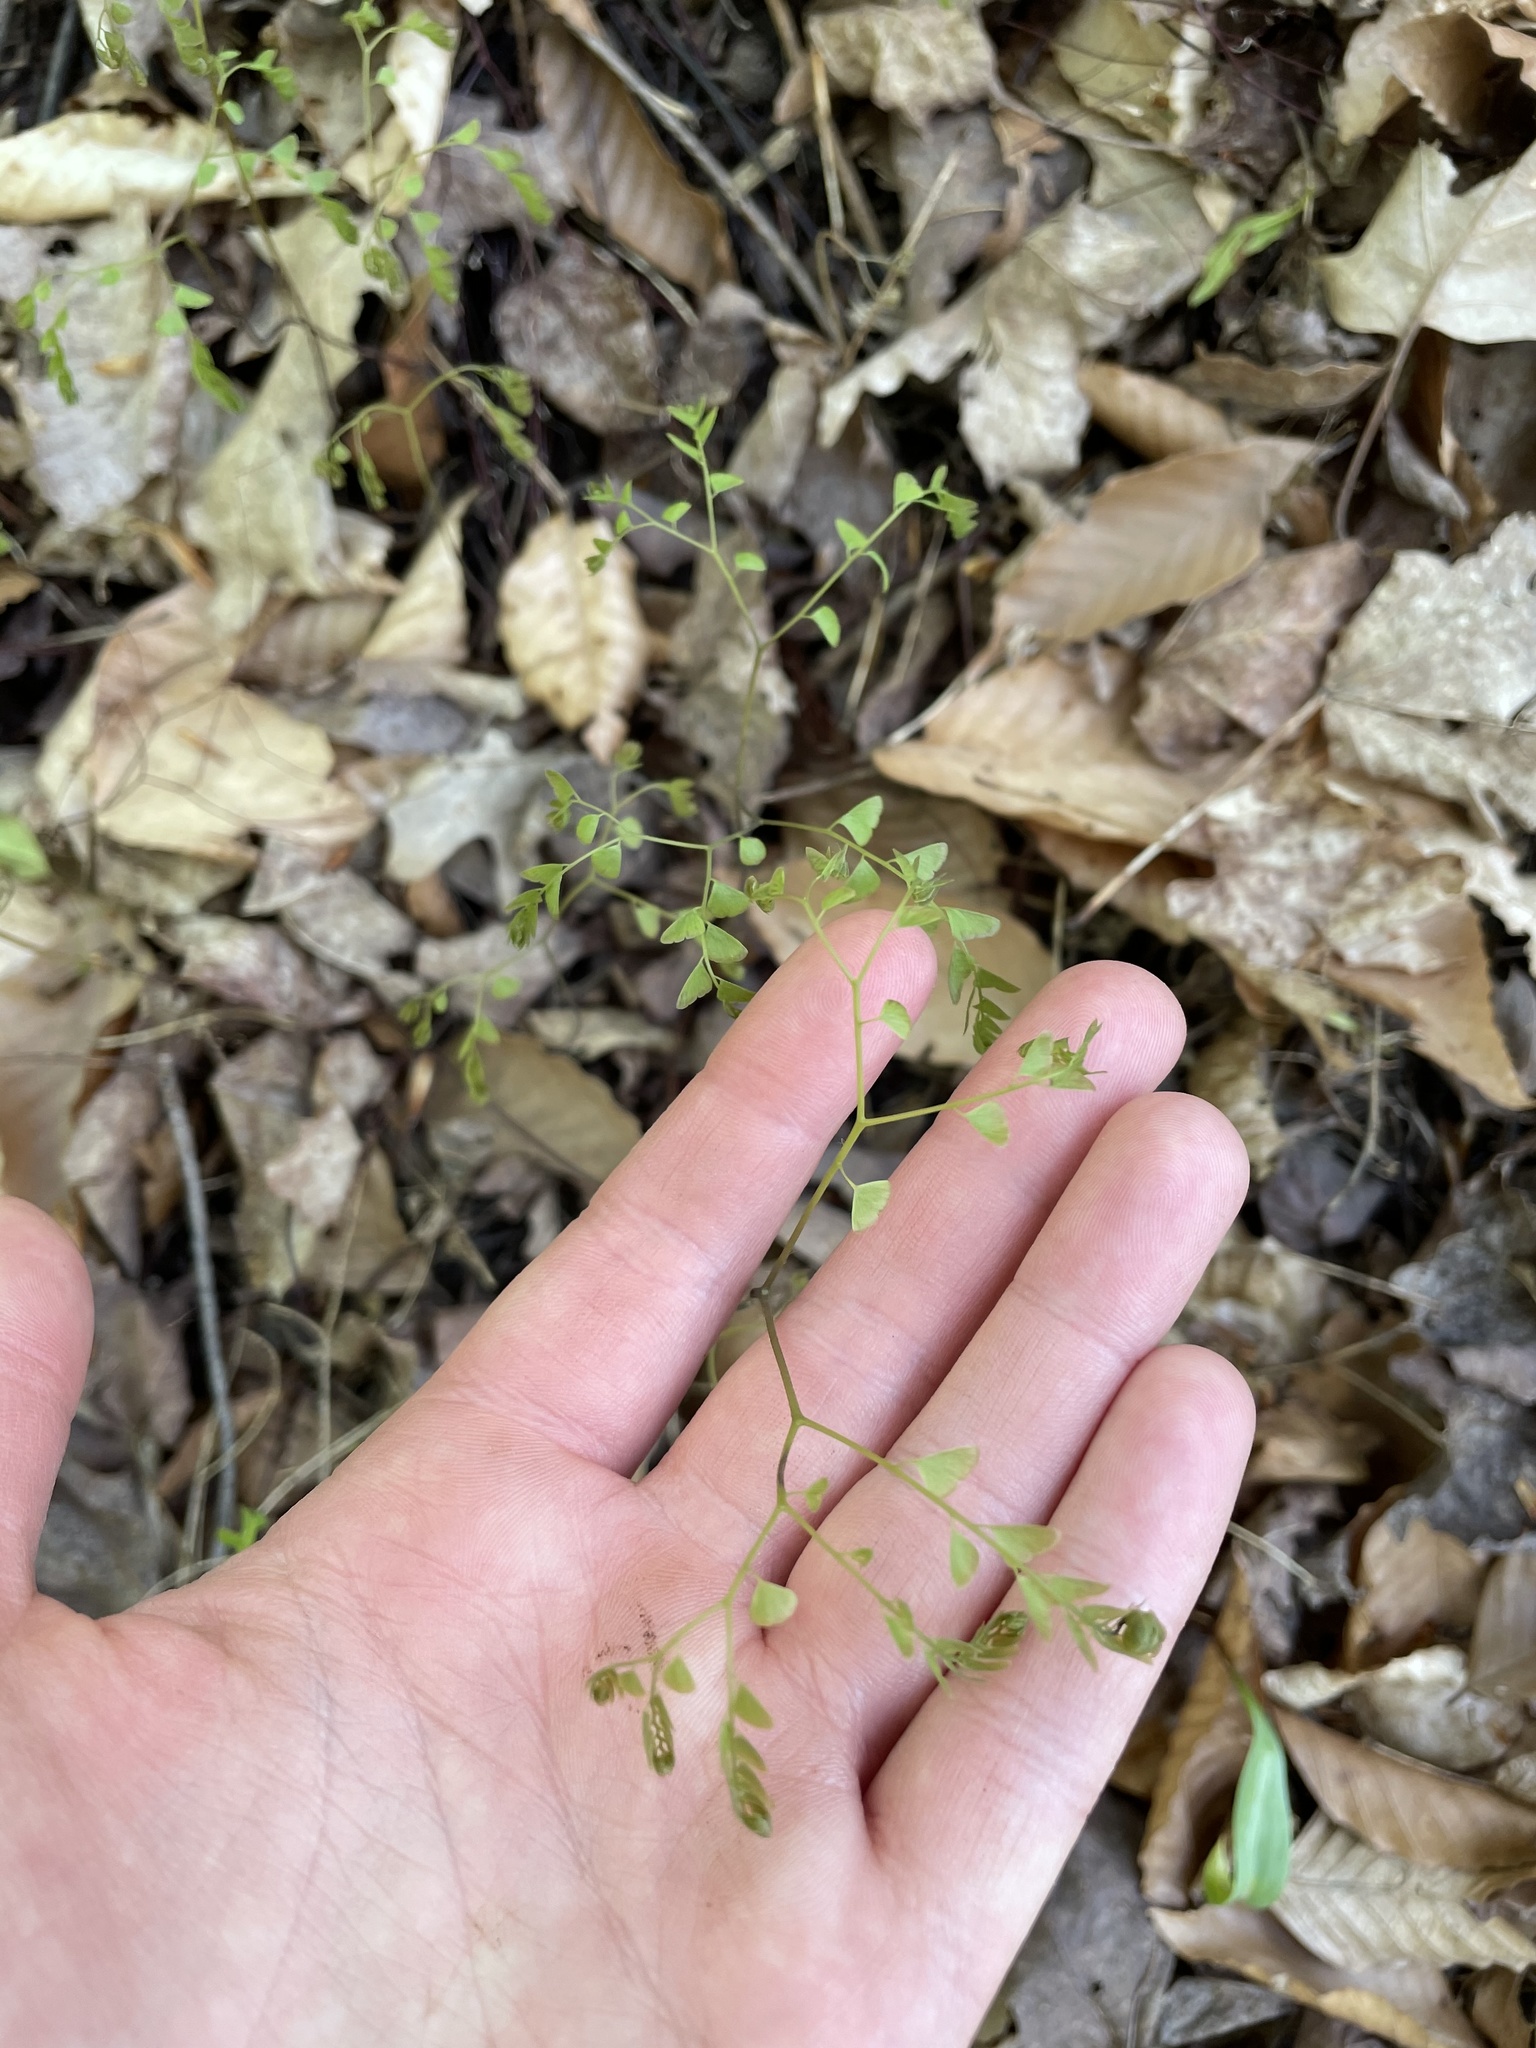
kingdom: Plantae
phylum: Tracheophyta
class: Polypodiopsida
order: Polypodiales
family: Pteridaceae
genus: Adiantum
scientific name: Adiantum pedatum
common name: Five-finger fern
